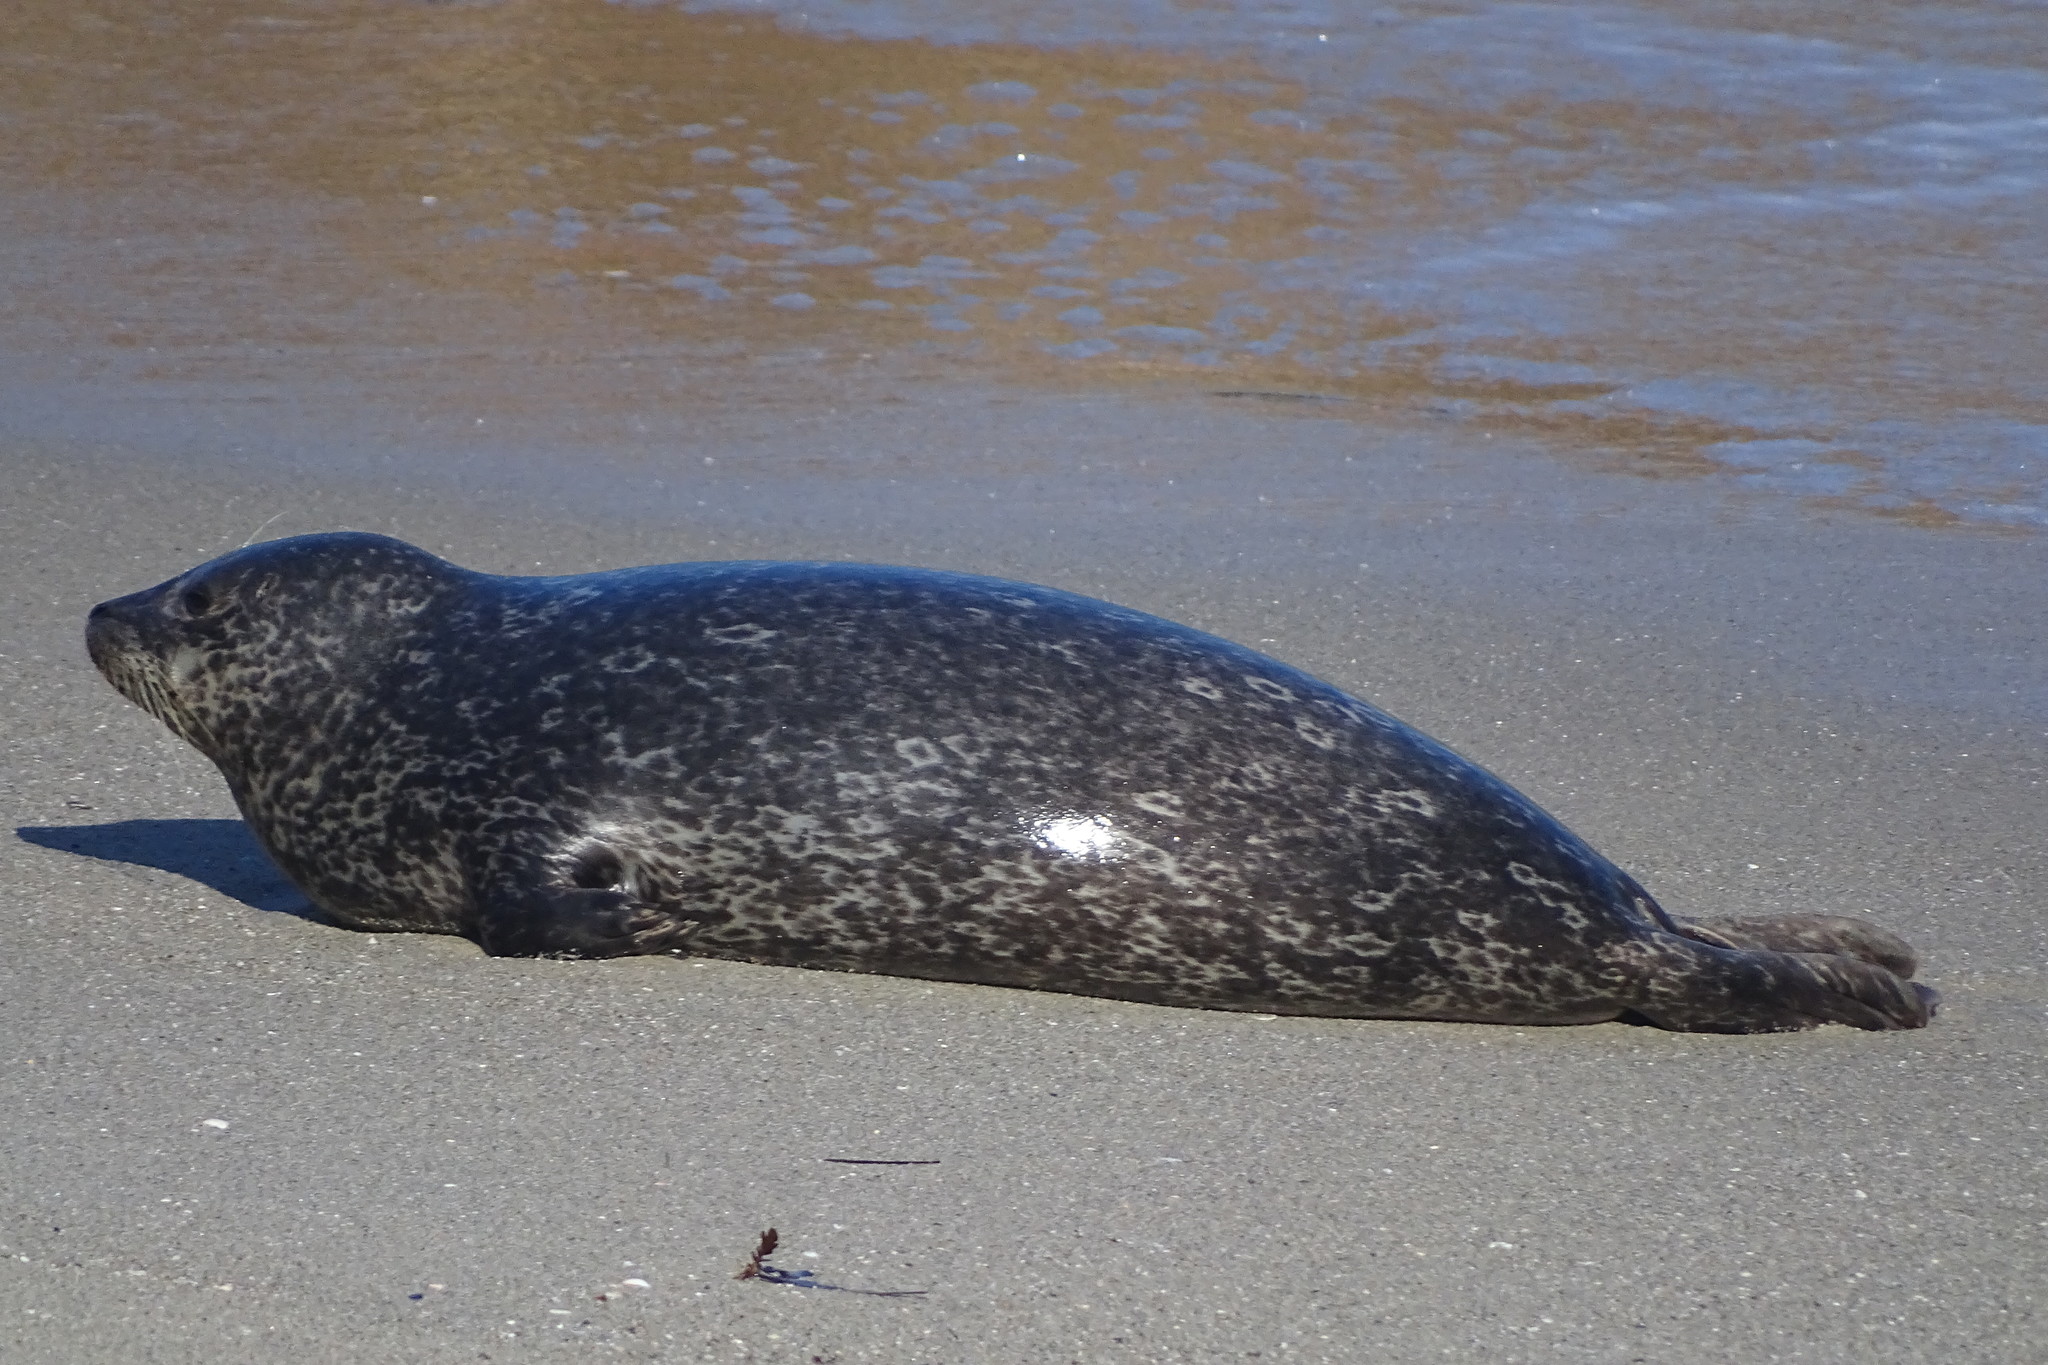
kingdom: Animalia
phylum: Chordata
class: Mammalia
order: Carnivora
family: Phocidae
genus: Phoca
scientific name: Phoca vitulina
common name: Harbor seal
